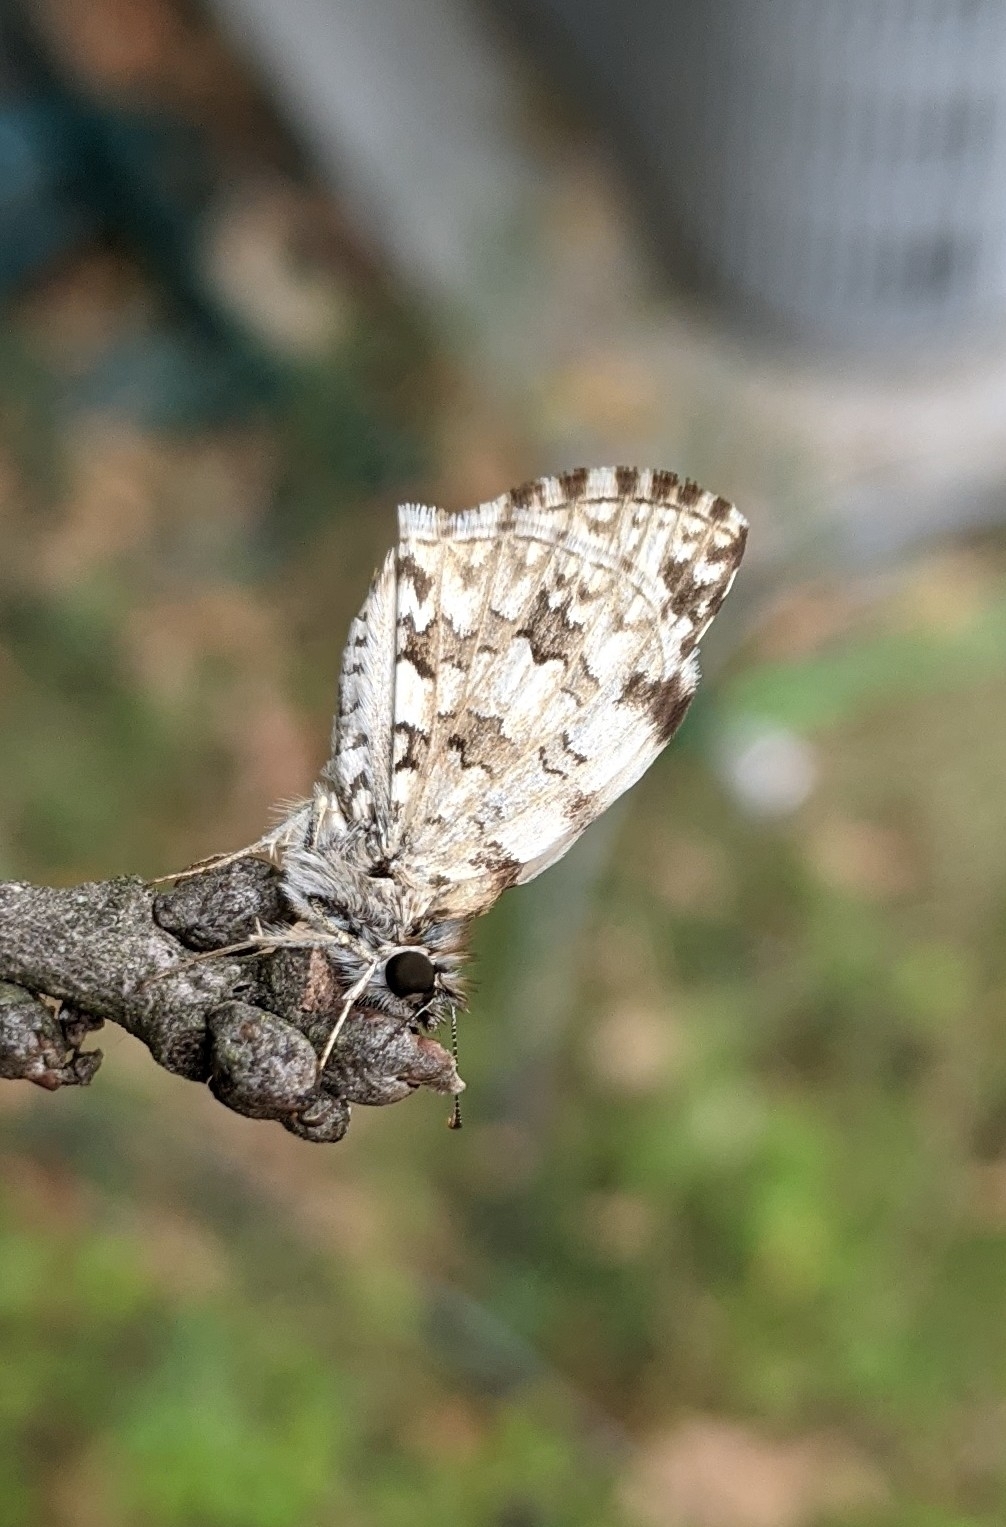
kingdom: Animalia
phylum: Arthropoda
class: Insecta
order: Lepidoptera
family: Hesperiidae
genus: Pyrgus
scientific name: Pyrgus oileus
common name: Tropical checkered-skipper
